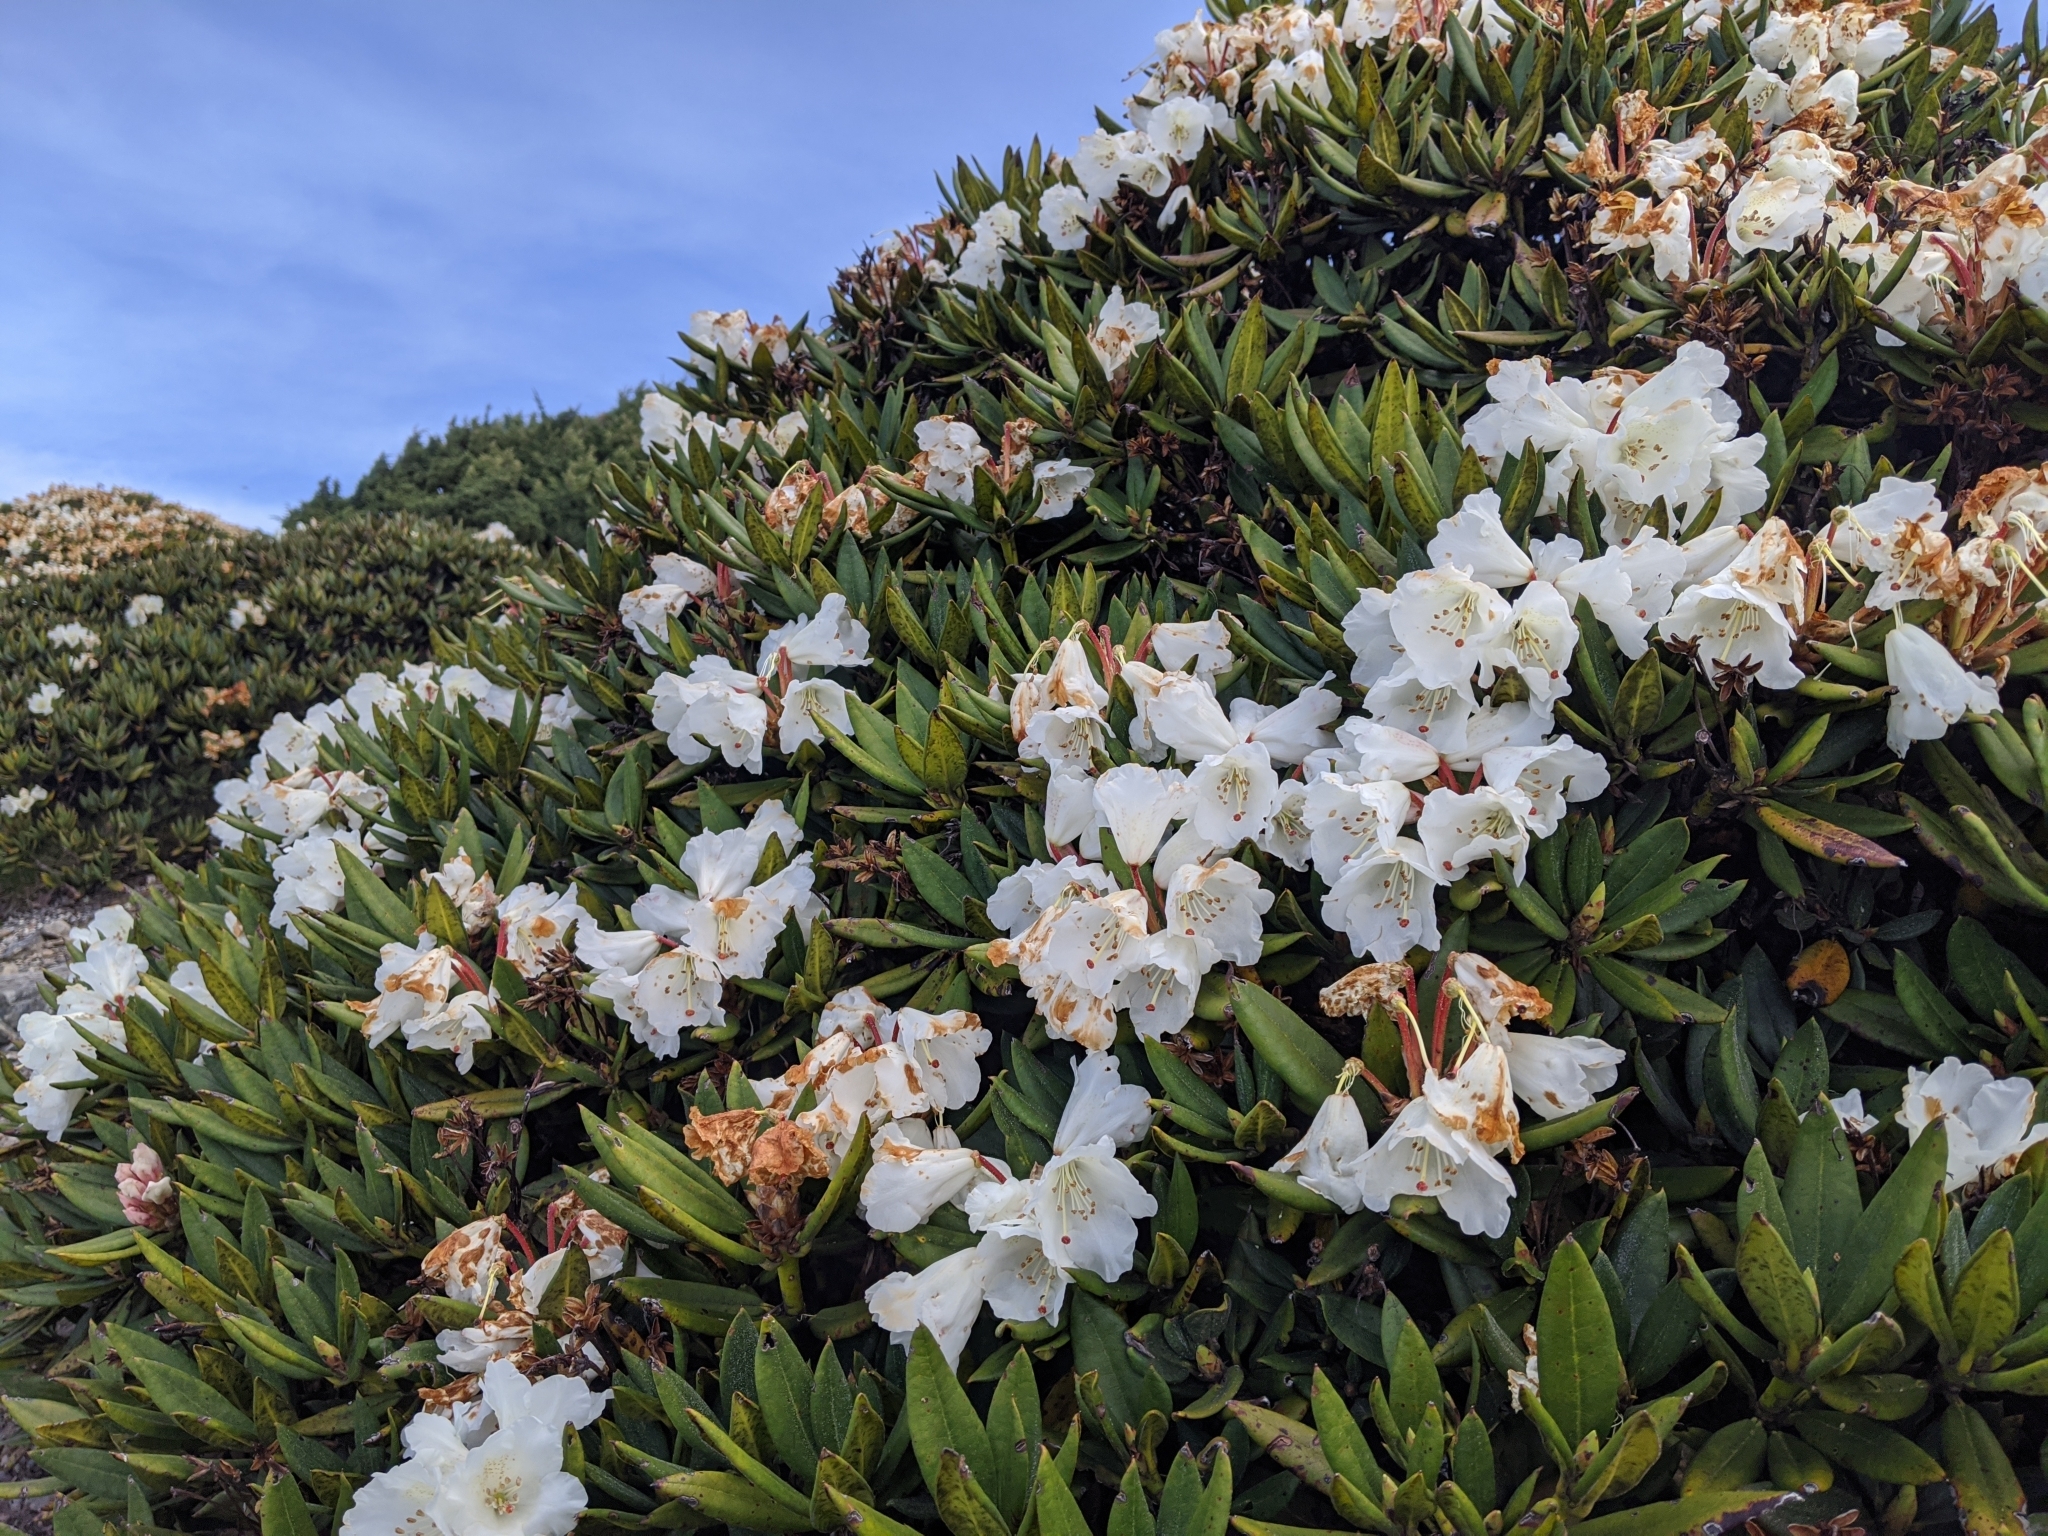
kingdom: Plantae
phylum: Tracheophyta
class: Magnoliopsida
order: Ericales
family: Ericaceae
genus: Rhododendron
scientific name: Rhododendron pseudochrysanthum
